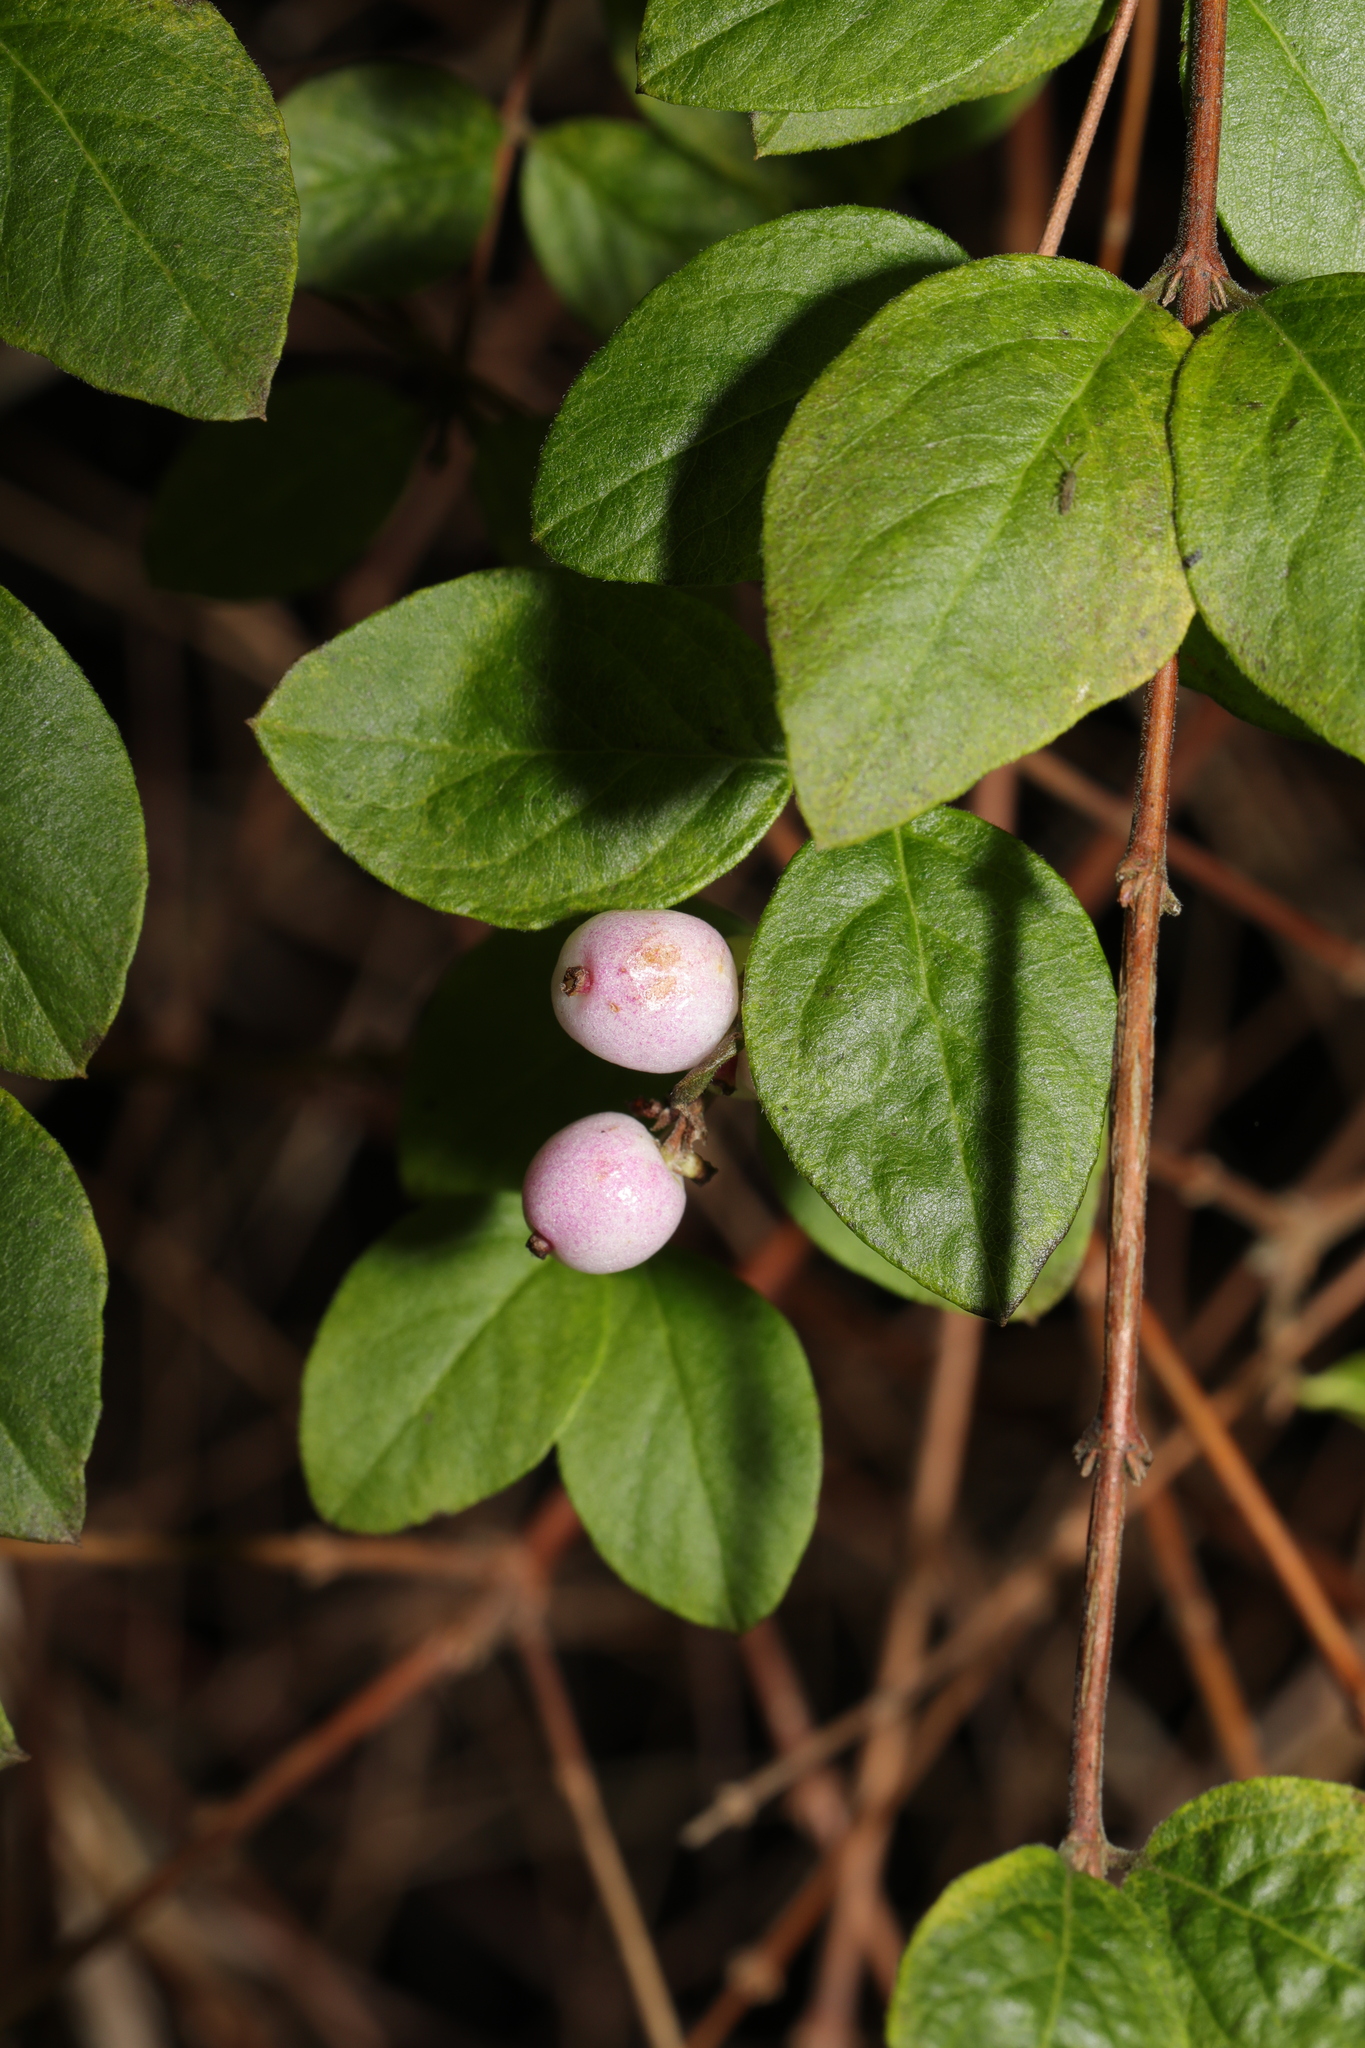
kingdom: Plantae
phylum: Tracheophyta
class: Magnoliopsida
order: Dipsacales
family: Caprifoliaceae
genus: Symphoricarpos
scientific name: Symphoricarpos chenaultii
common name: Hybrid coralberry
